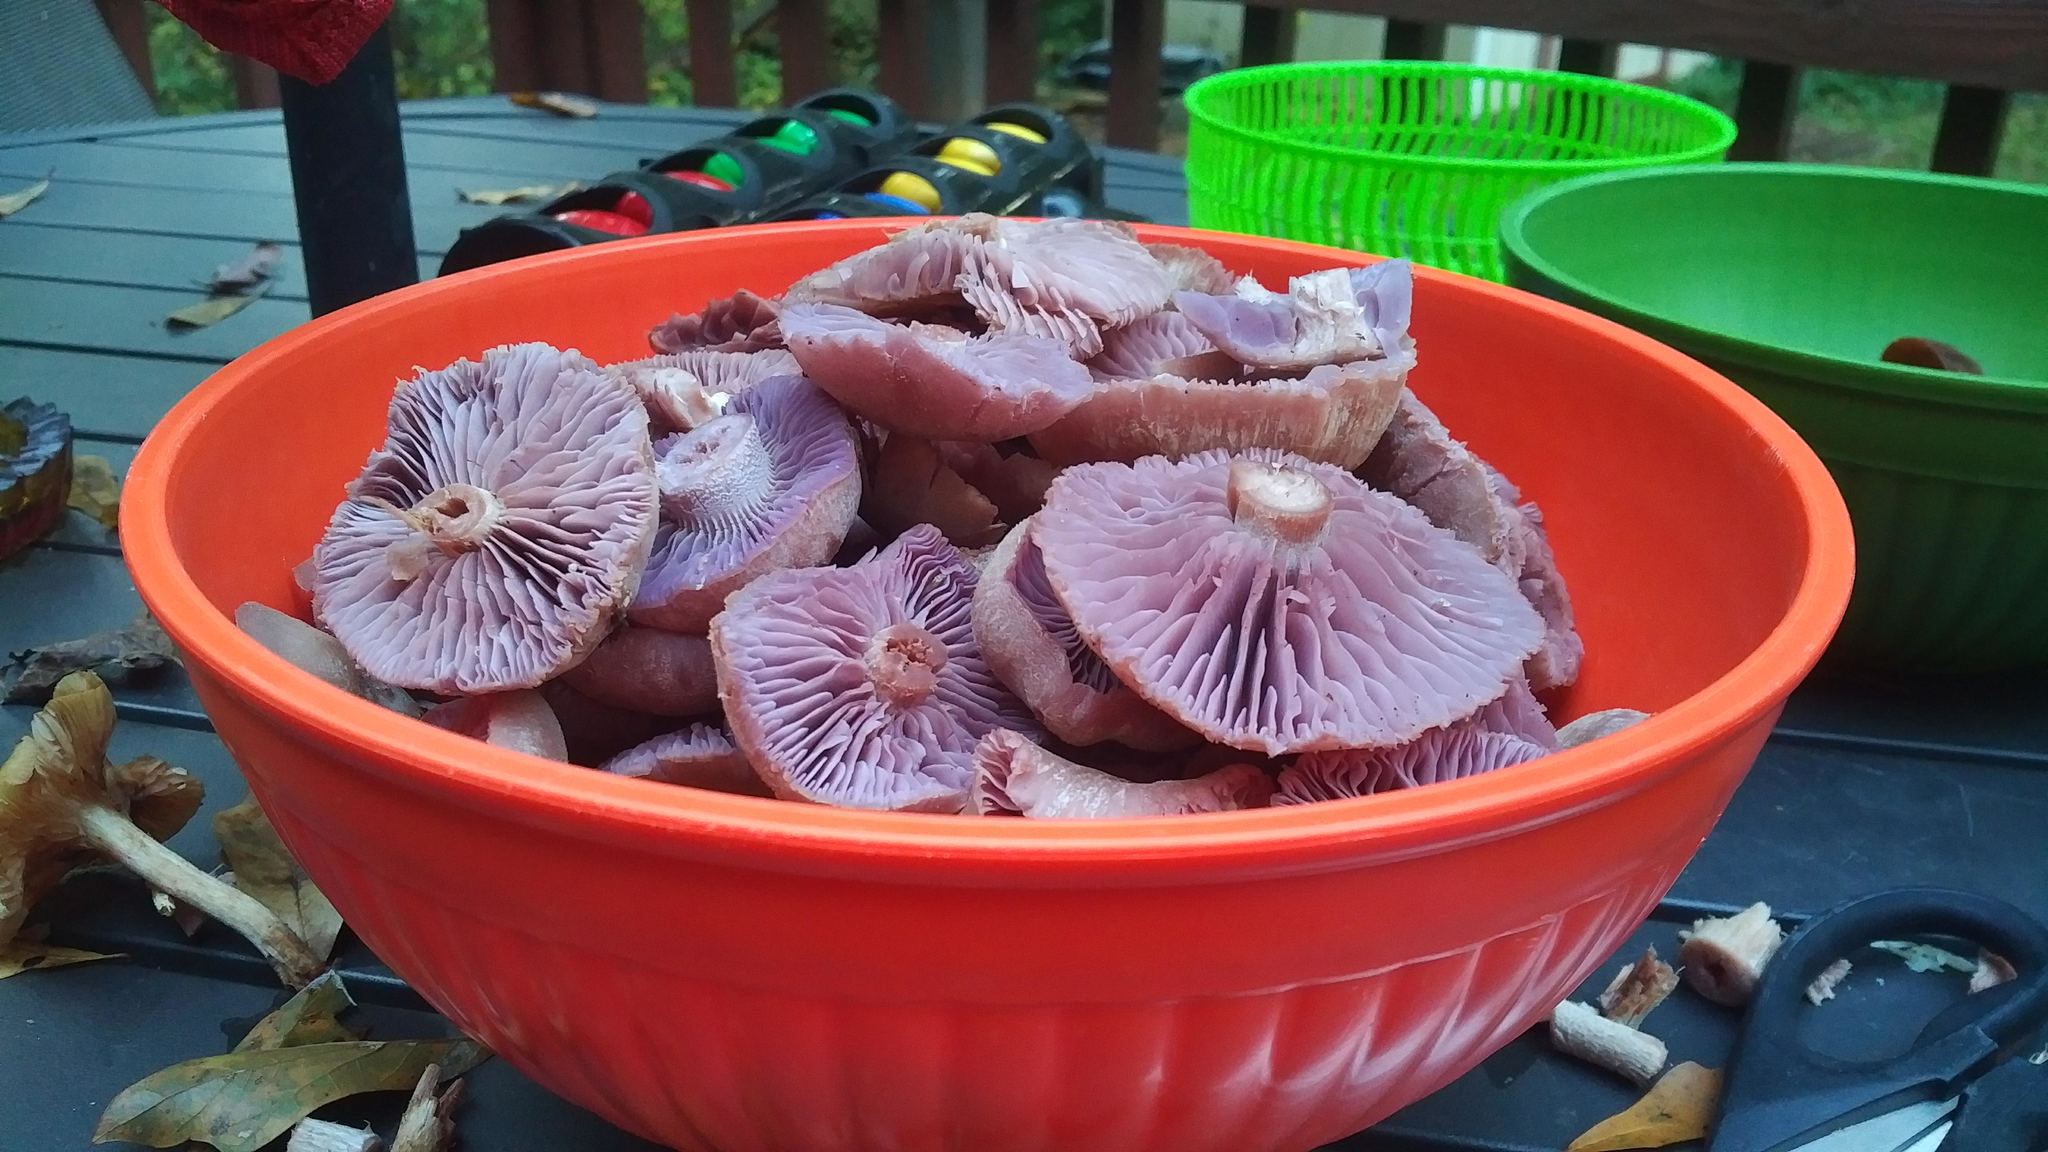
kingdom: Fungi
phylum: Basidiomycota
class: Agaricomycetes
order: Agaricales
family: Hydnangiaceae
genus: Laccaria
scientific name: Laccaria ochropurpurea
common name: Purple laccaria
